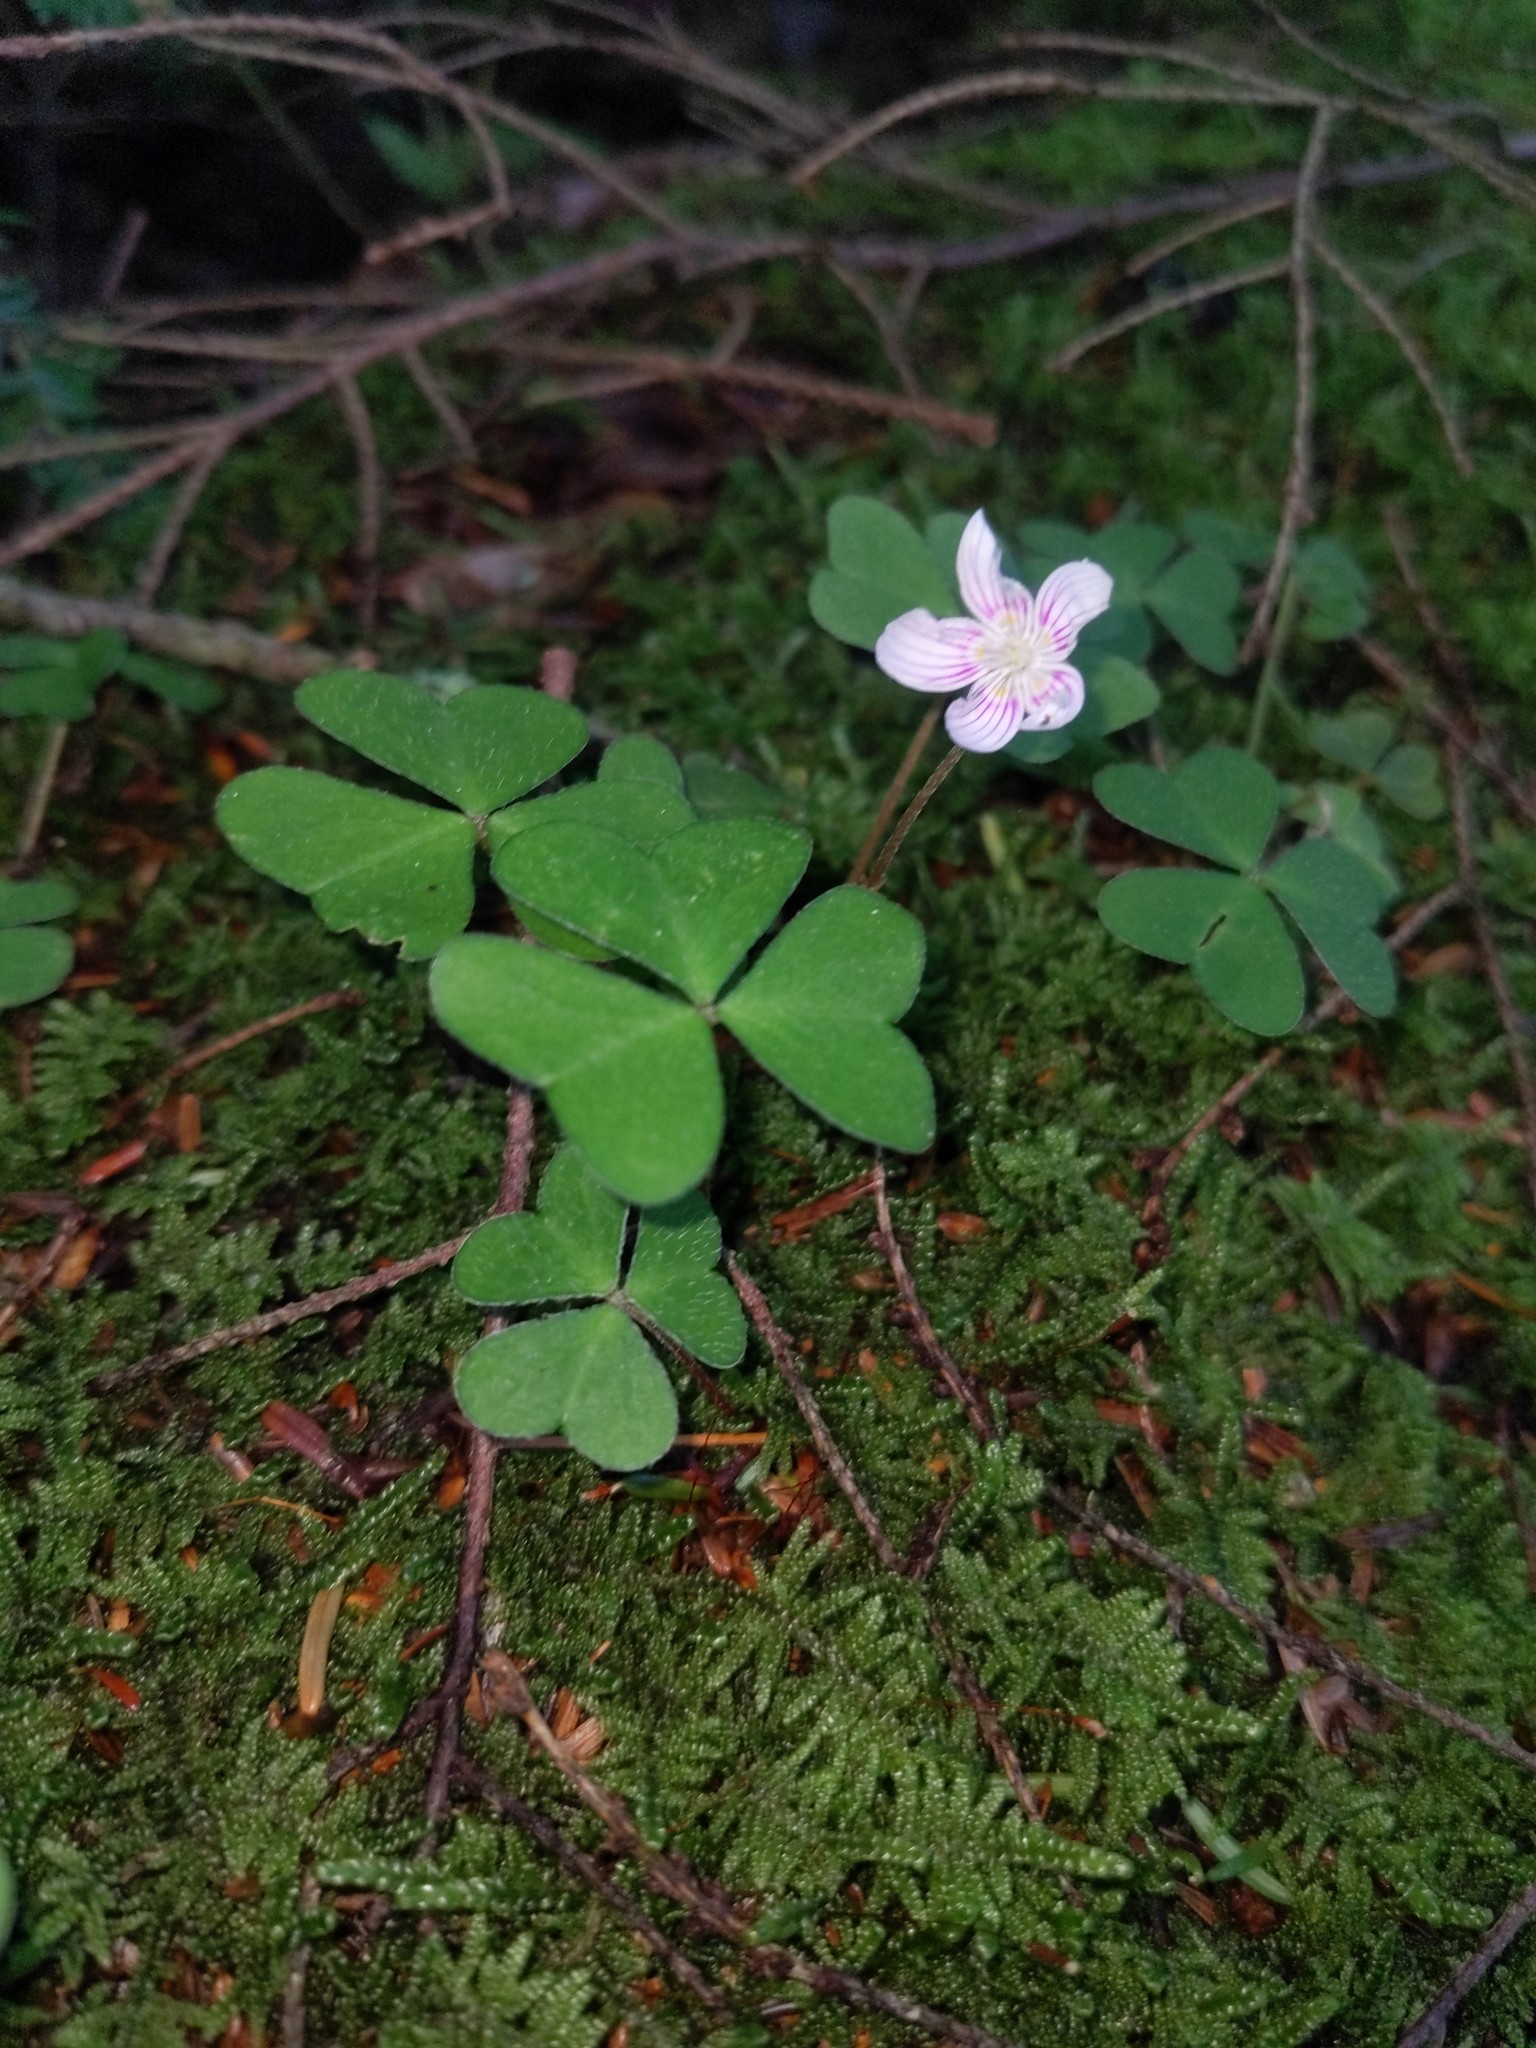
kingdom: Plantae
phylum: Tracheophyta
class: Magnoliopsida
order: Oxalidales
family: Oxalidaceae
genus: Oxalis
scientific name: Oxalis montana
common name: American wood-sorrel
